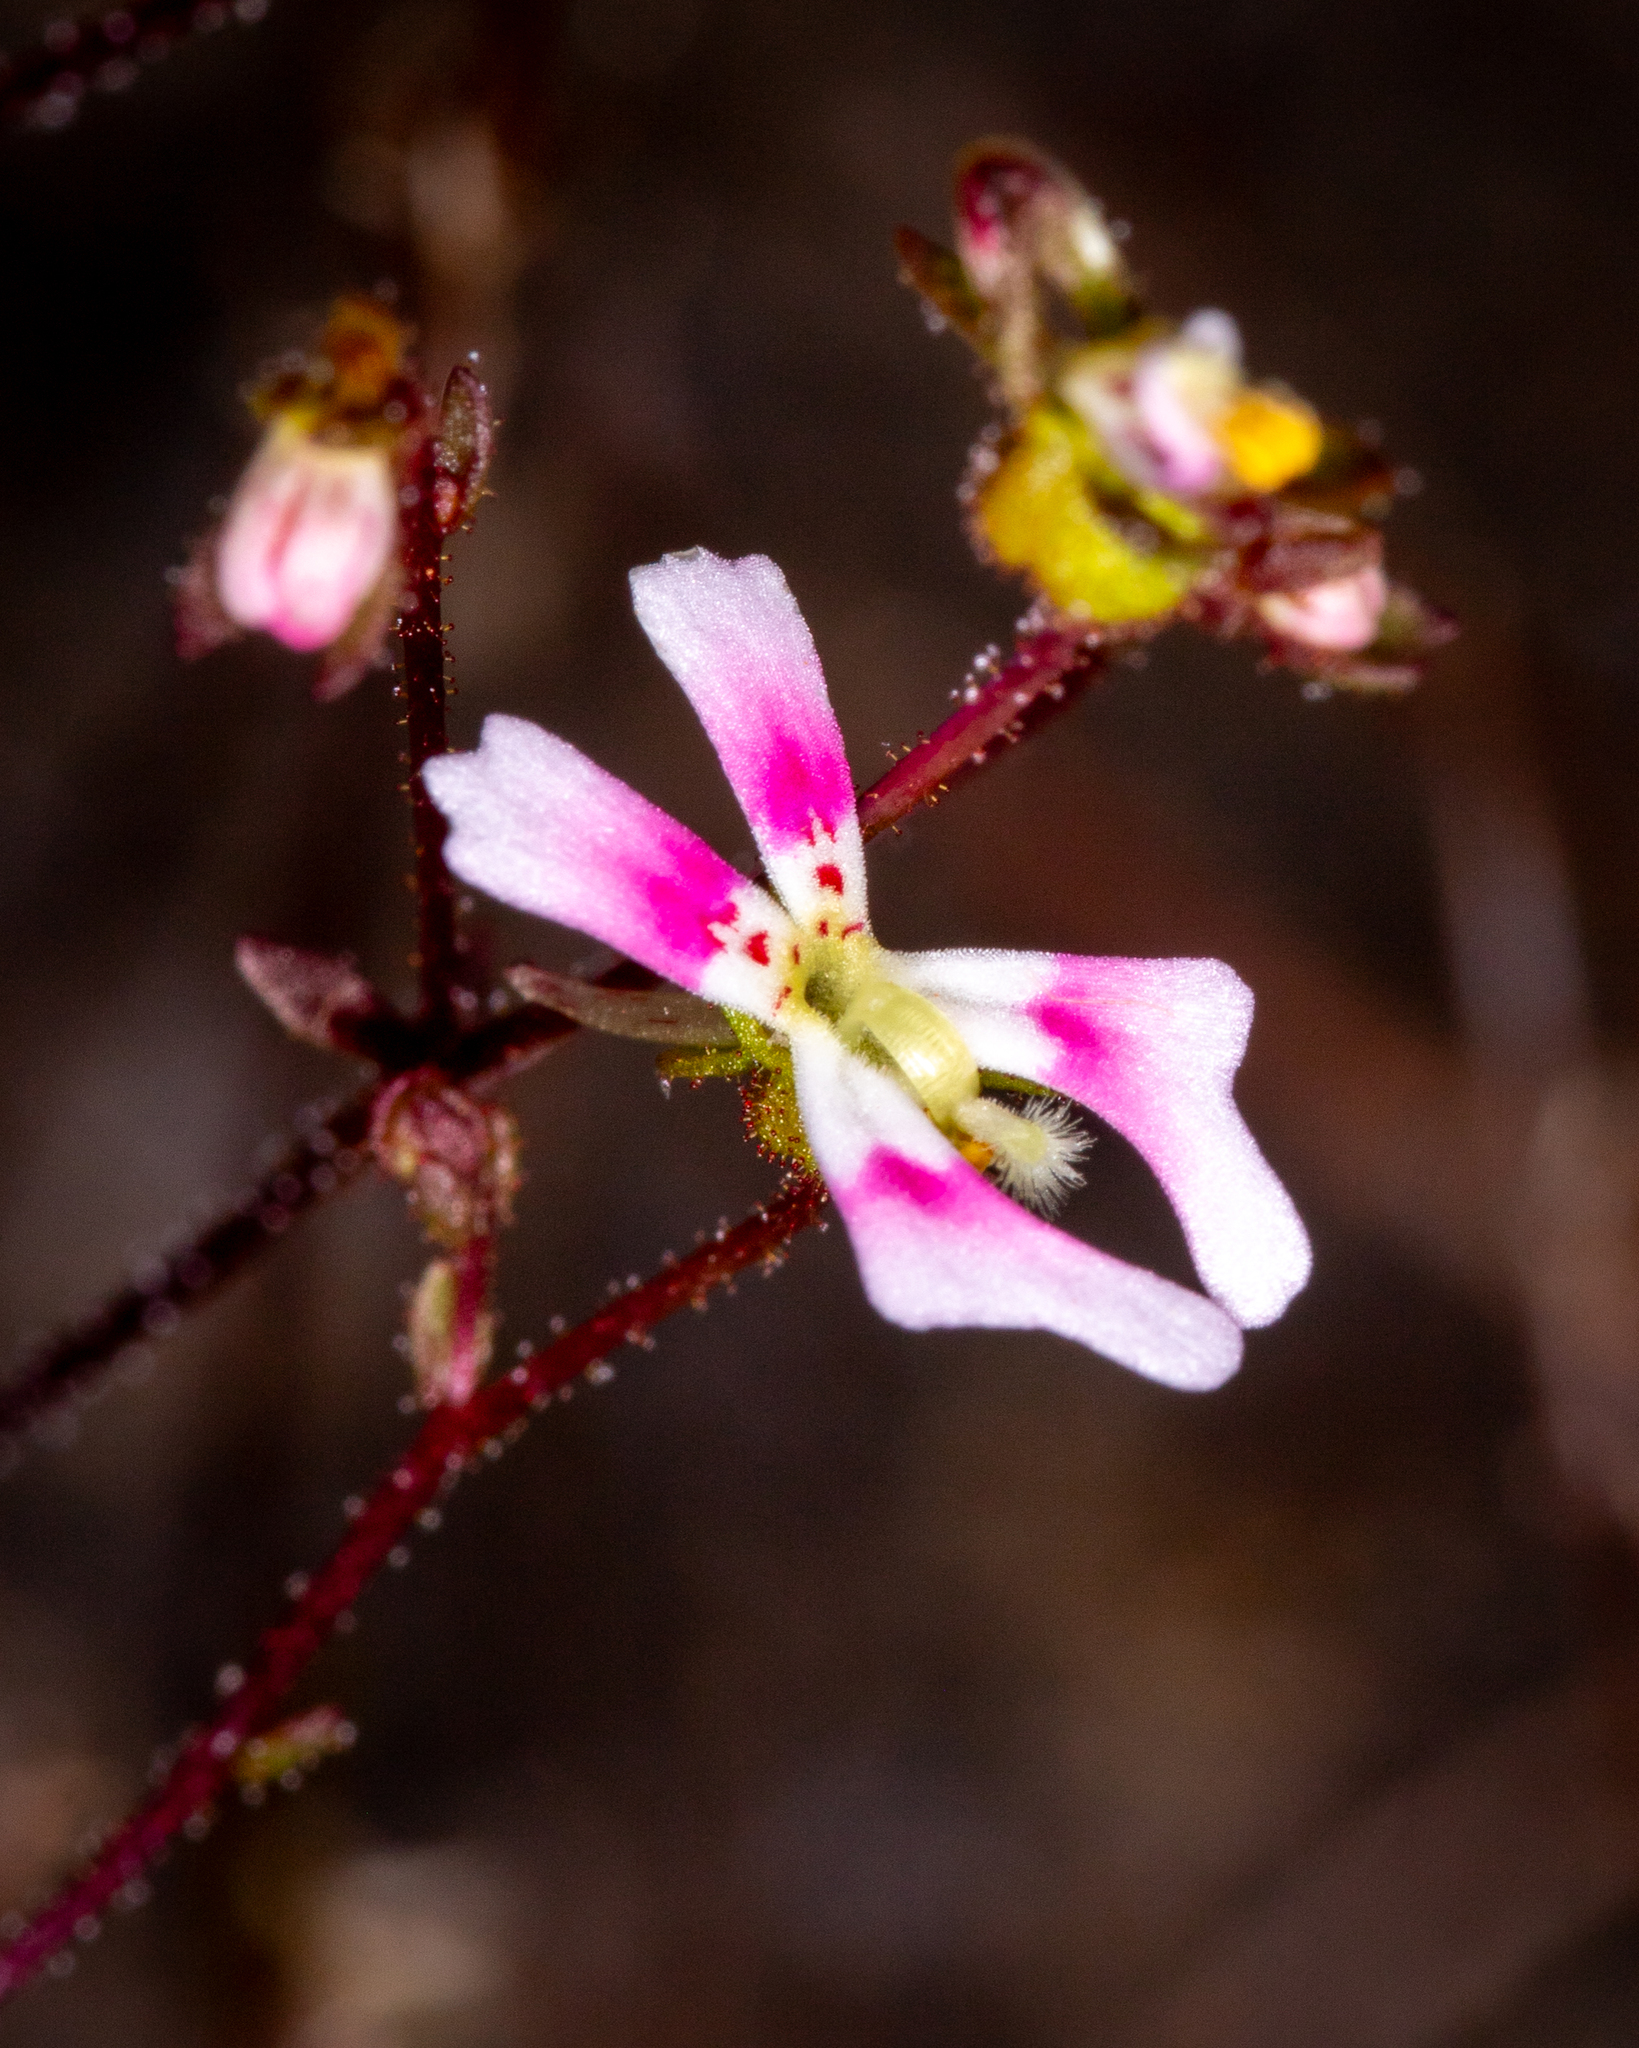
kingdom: Plantae
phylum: Tracheophyta
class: Magnoliopsida
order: Asterales
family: Stylidiaceae
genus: Stylidium
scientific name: Stylidium calcaratum
